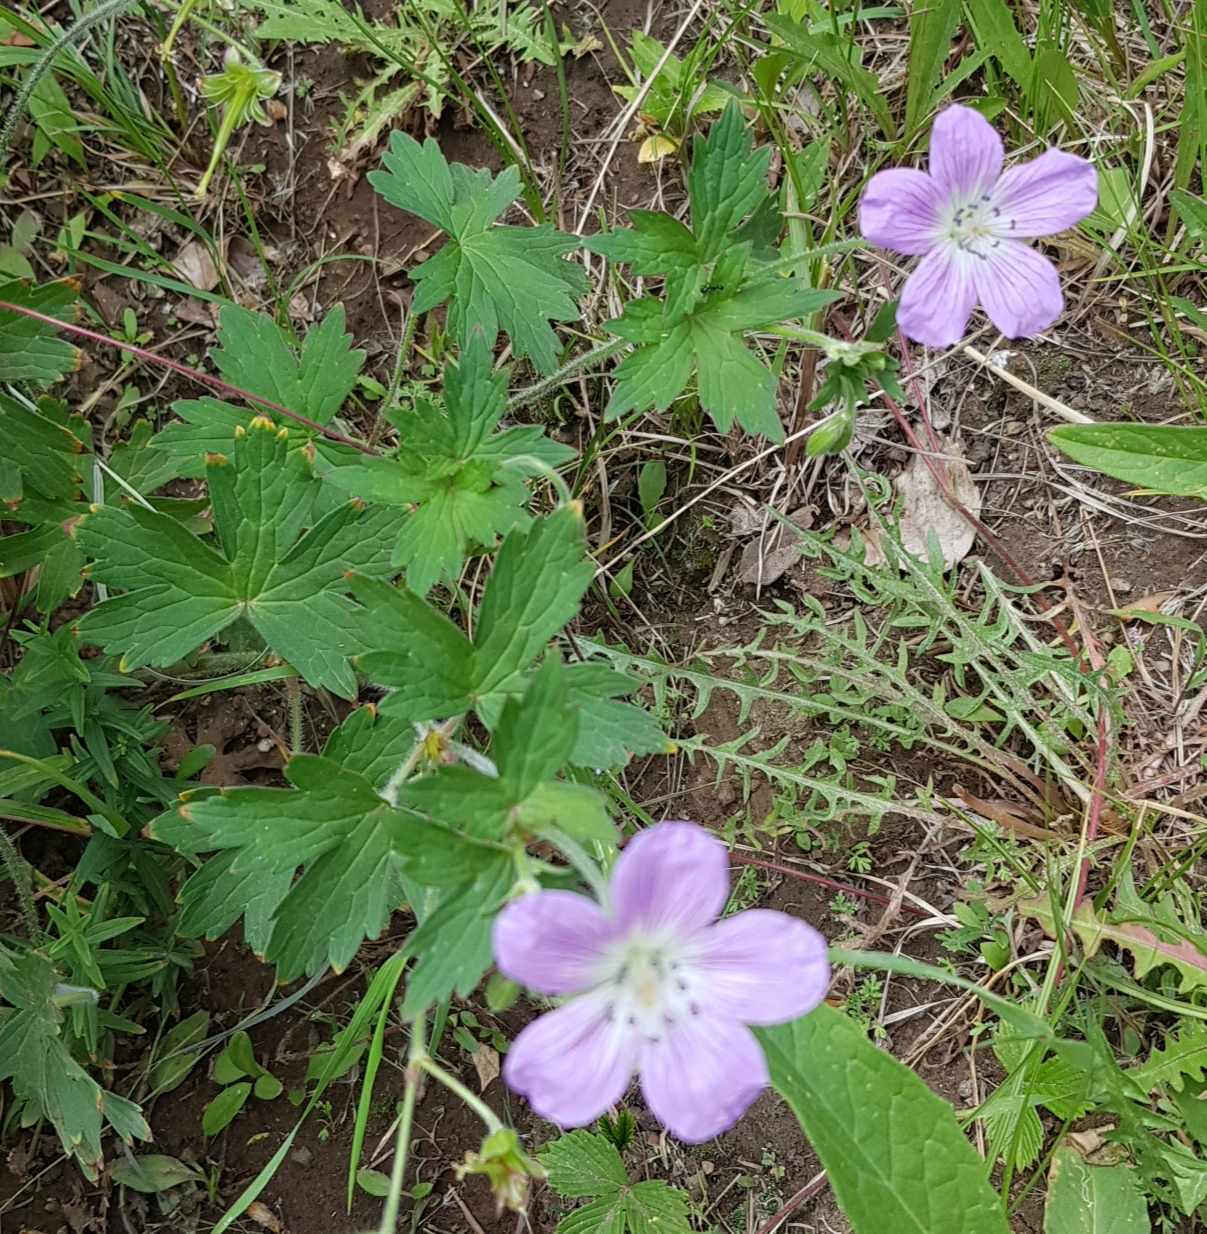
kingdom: Plantae
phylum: Tracheophyta
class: Magnoliopsida
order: Geraniales
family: Geraniaceae
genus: Geranium
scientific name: Geranium wlassovianum
